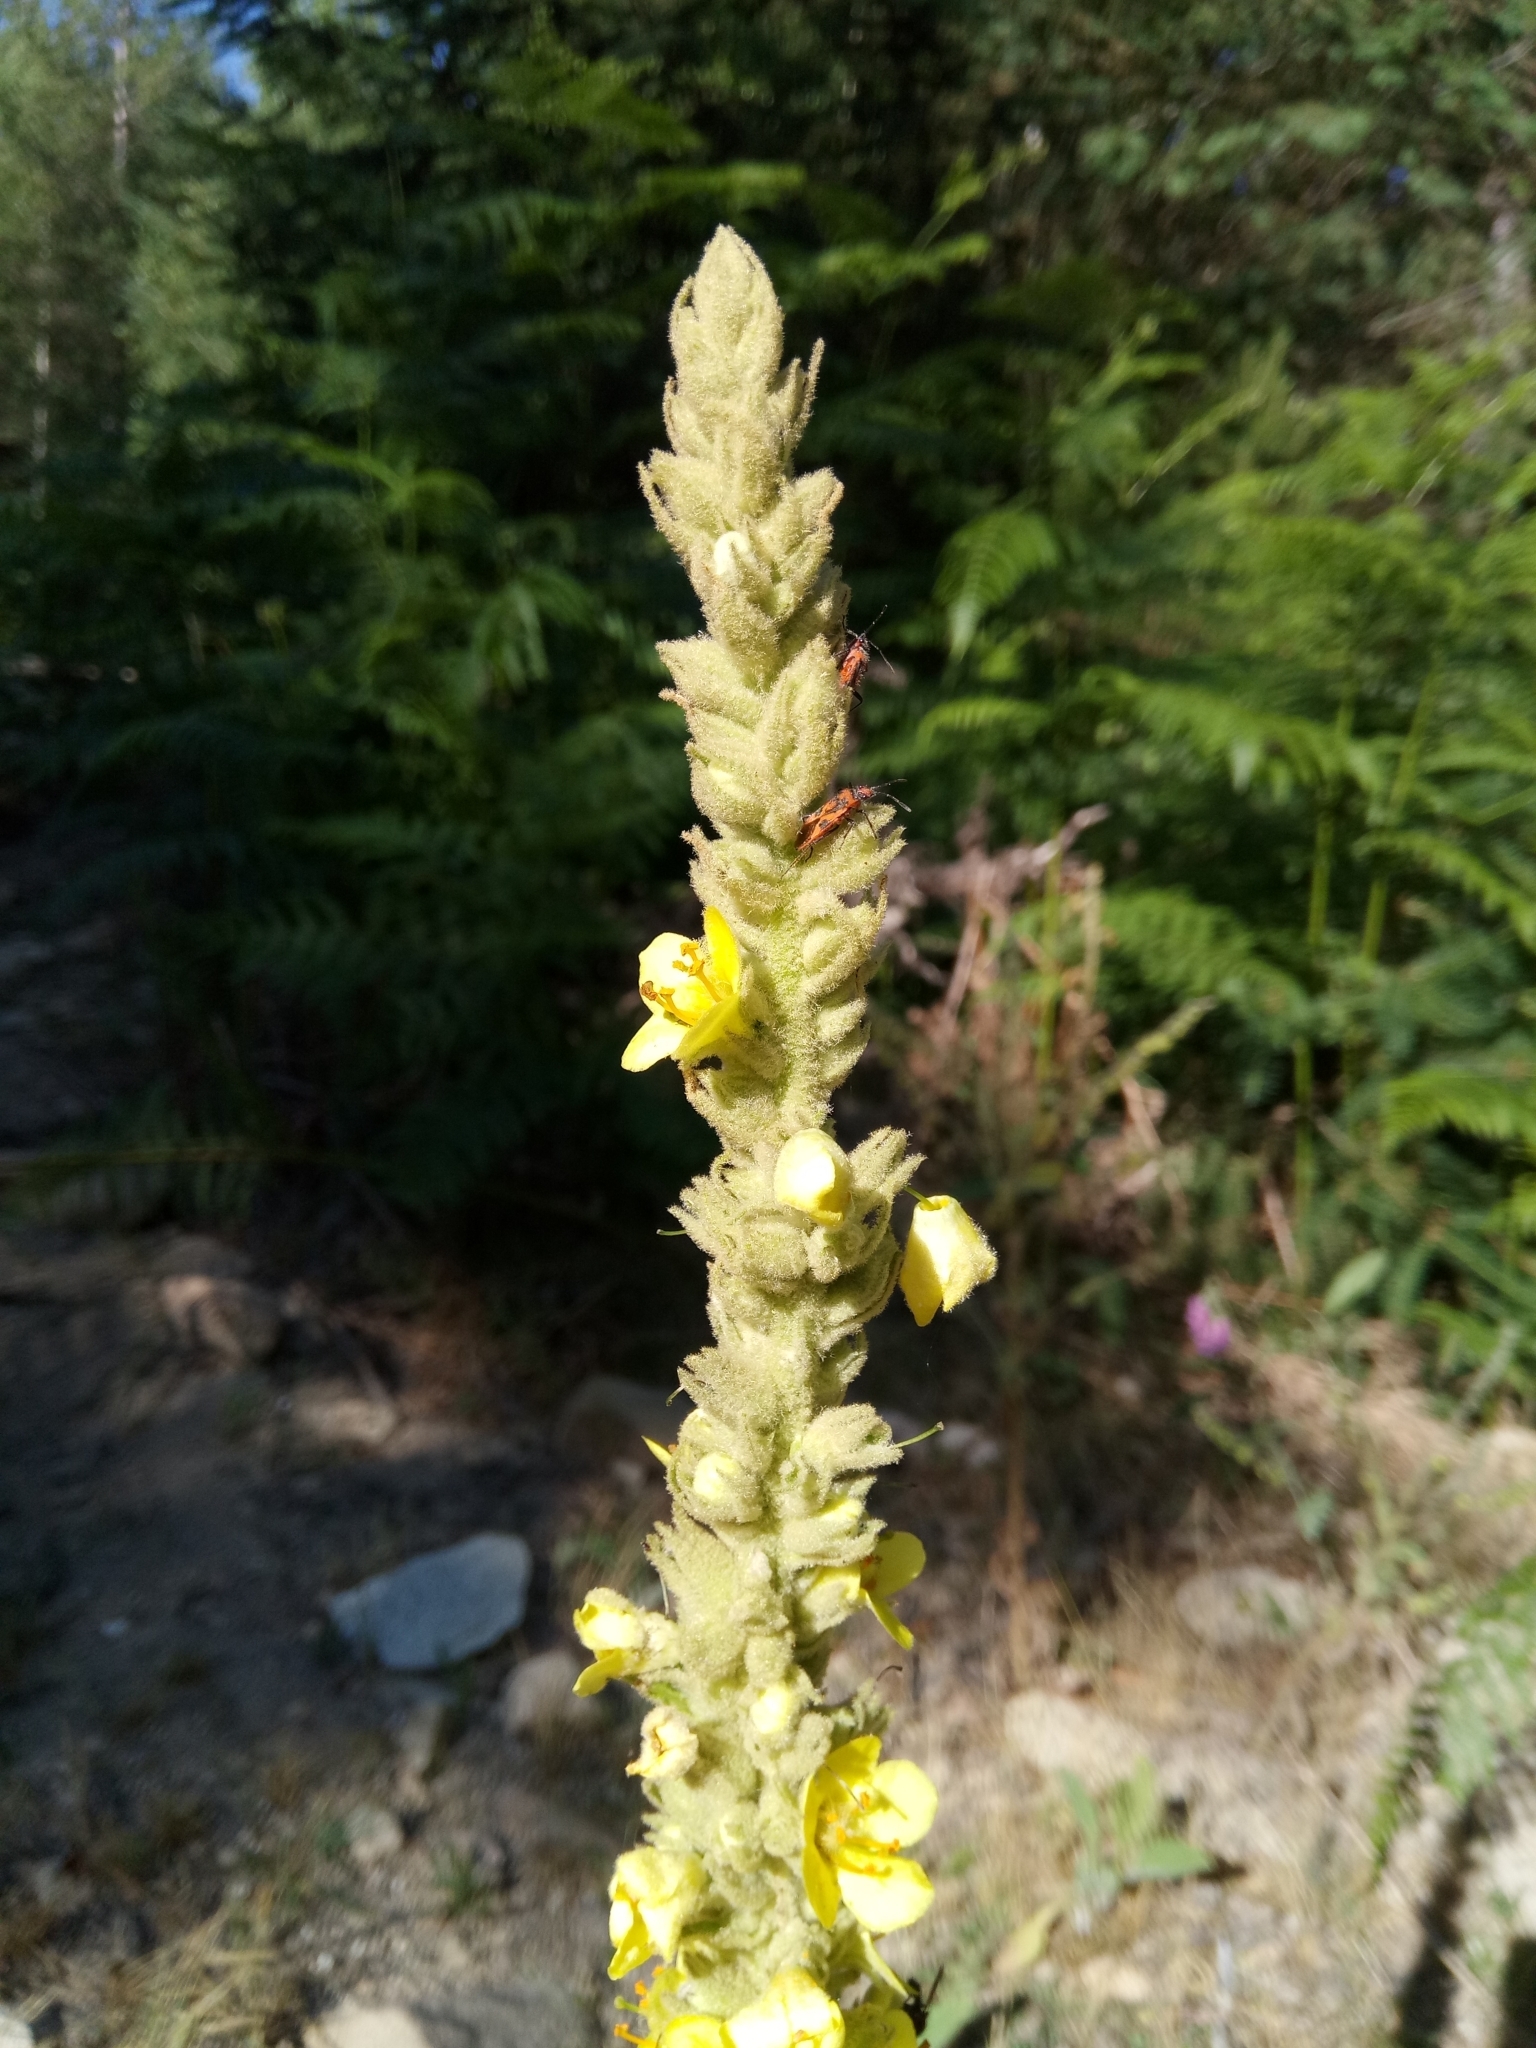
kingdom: Plantae
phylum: Tracheophyta
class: Magnoliopsida
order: Lamiales
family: Scrophulariaceae
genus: Verbascum
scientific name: Verbascum thapsus
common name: Common mullein
